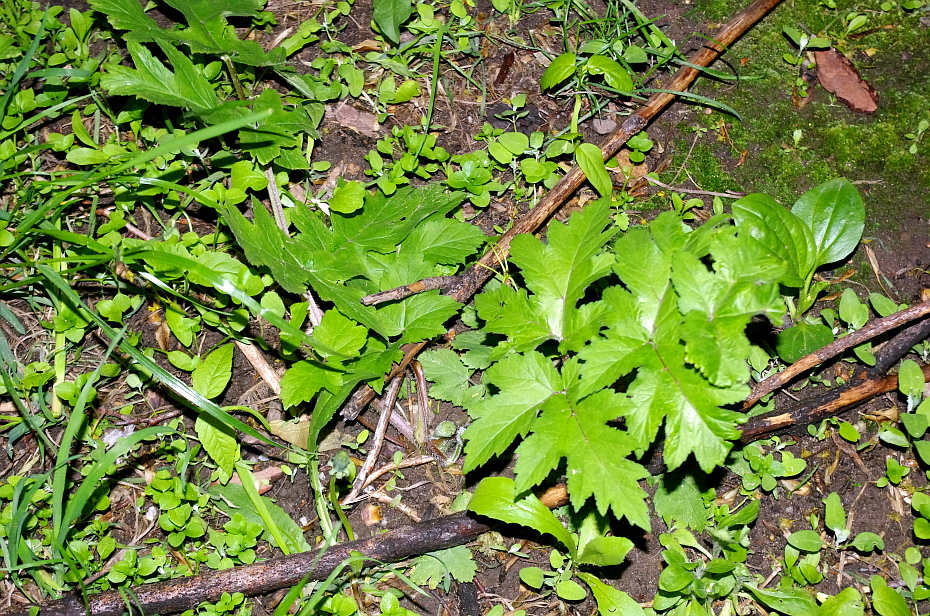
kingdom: Plantae
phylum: Tracheophyta
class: Magnoliopsida
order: Apiales
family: Apiaceae
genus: Heracleum
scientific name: Heracleum sphondylium
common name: Hogweed
